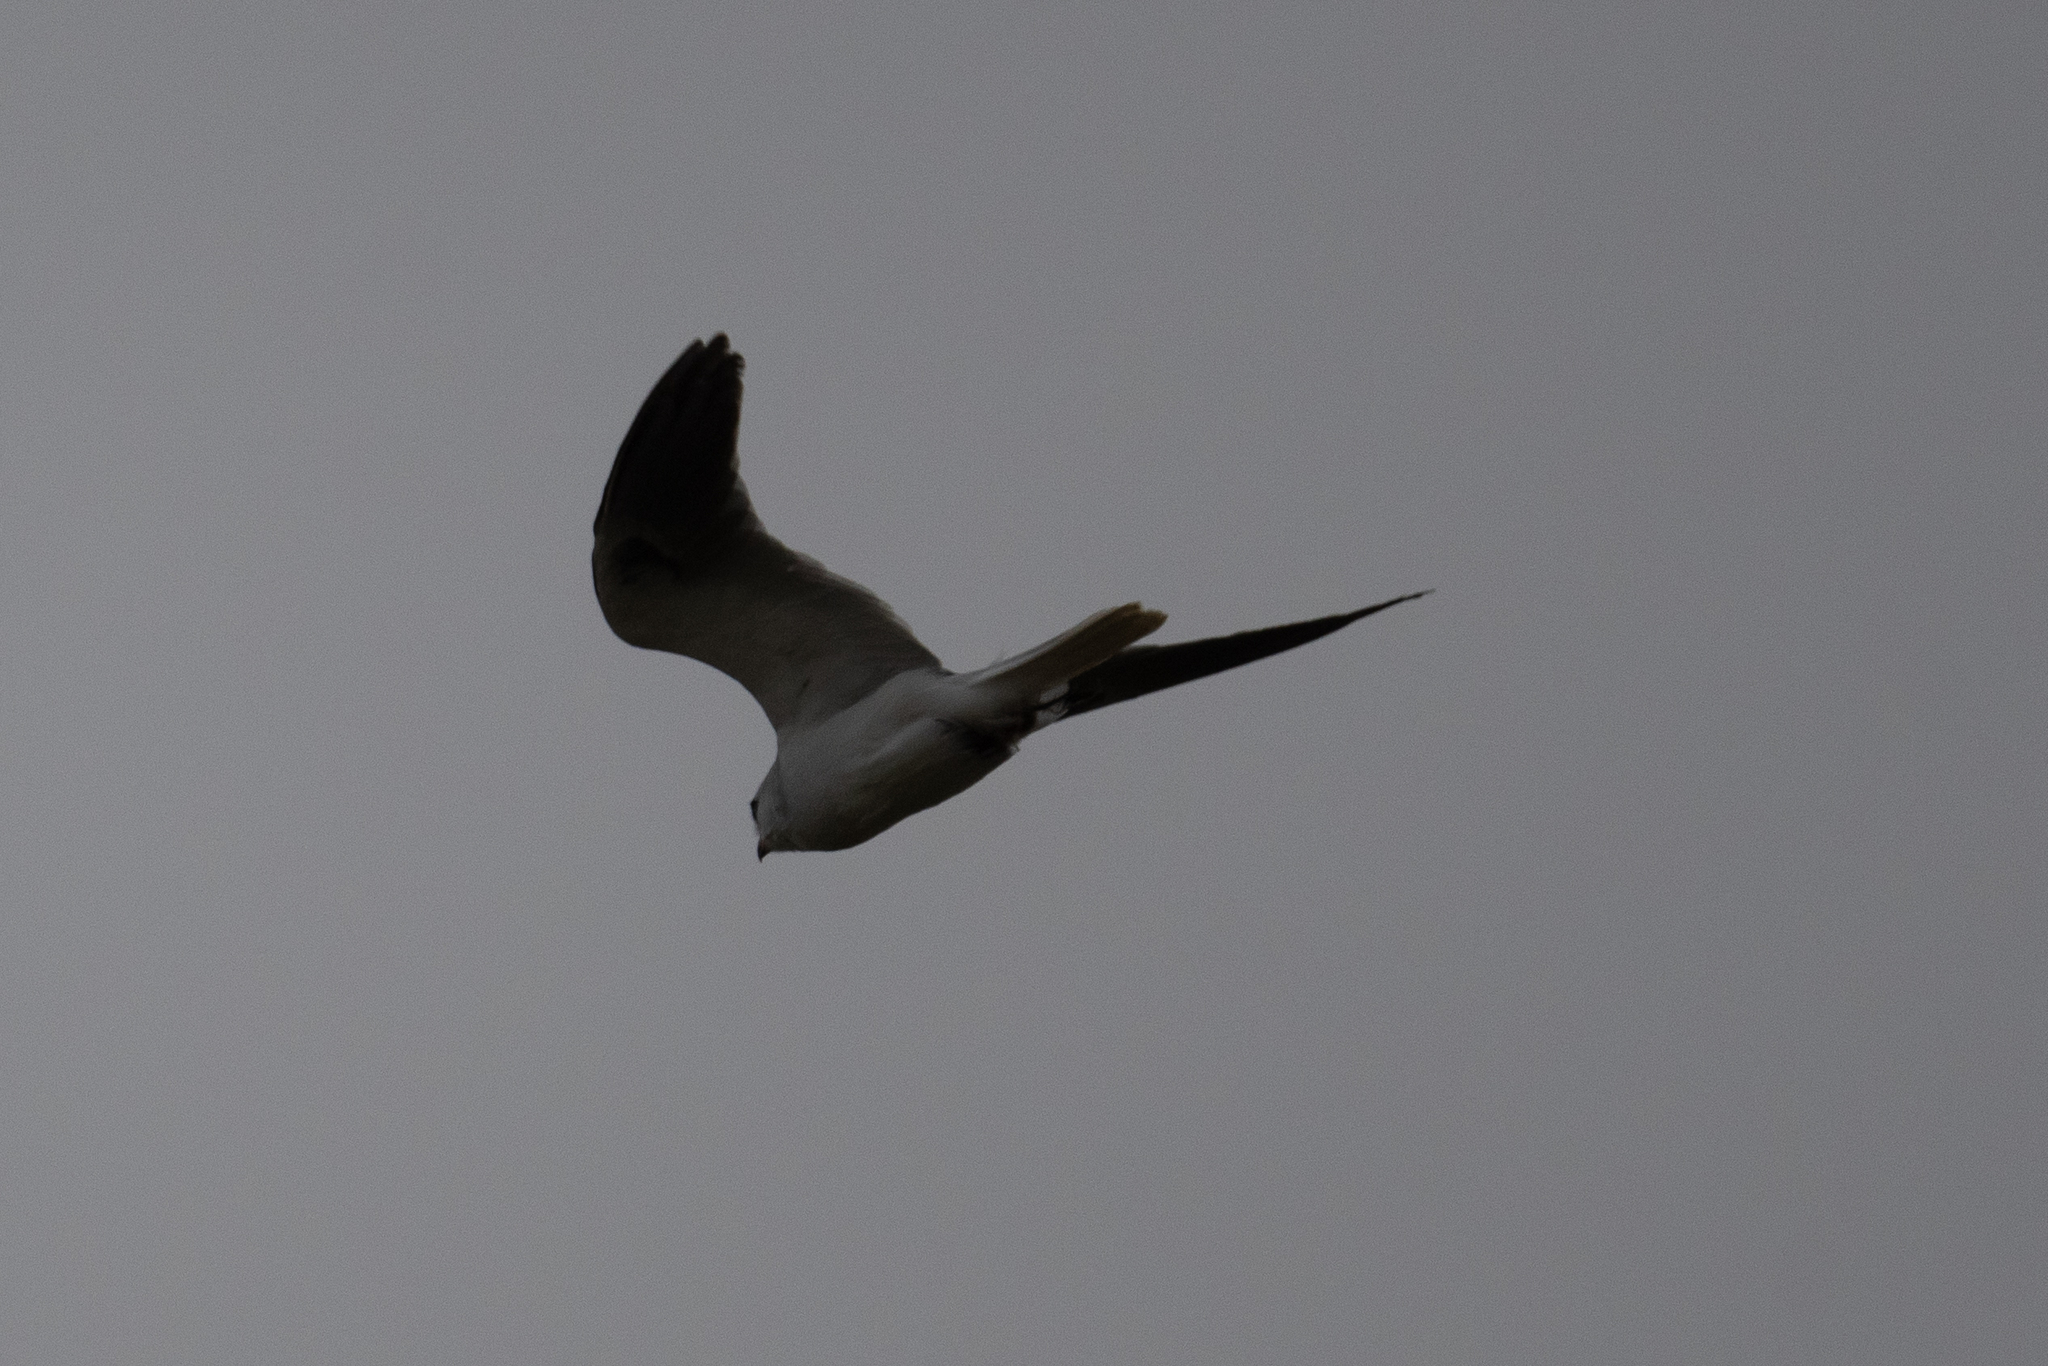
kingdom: Animalia
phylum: Chordata
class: Aves
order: Accipitriformes
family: Accipitridae
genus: Elanus
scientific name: Elanus leucurus
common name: White-tailed kite
